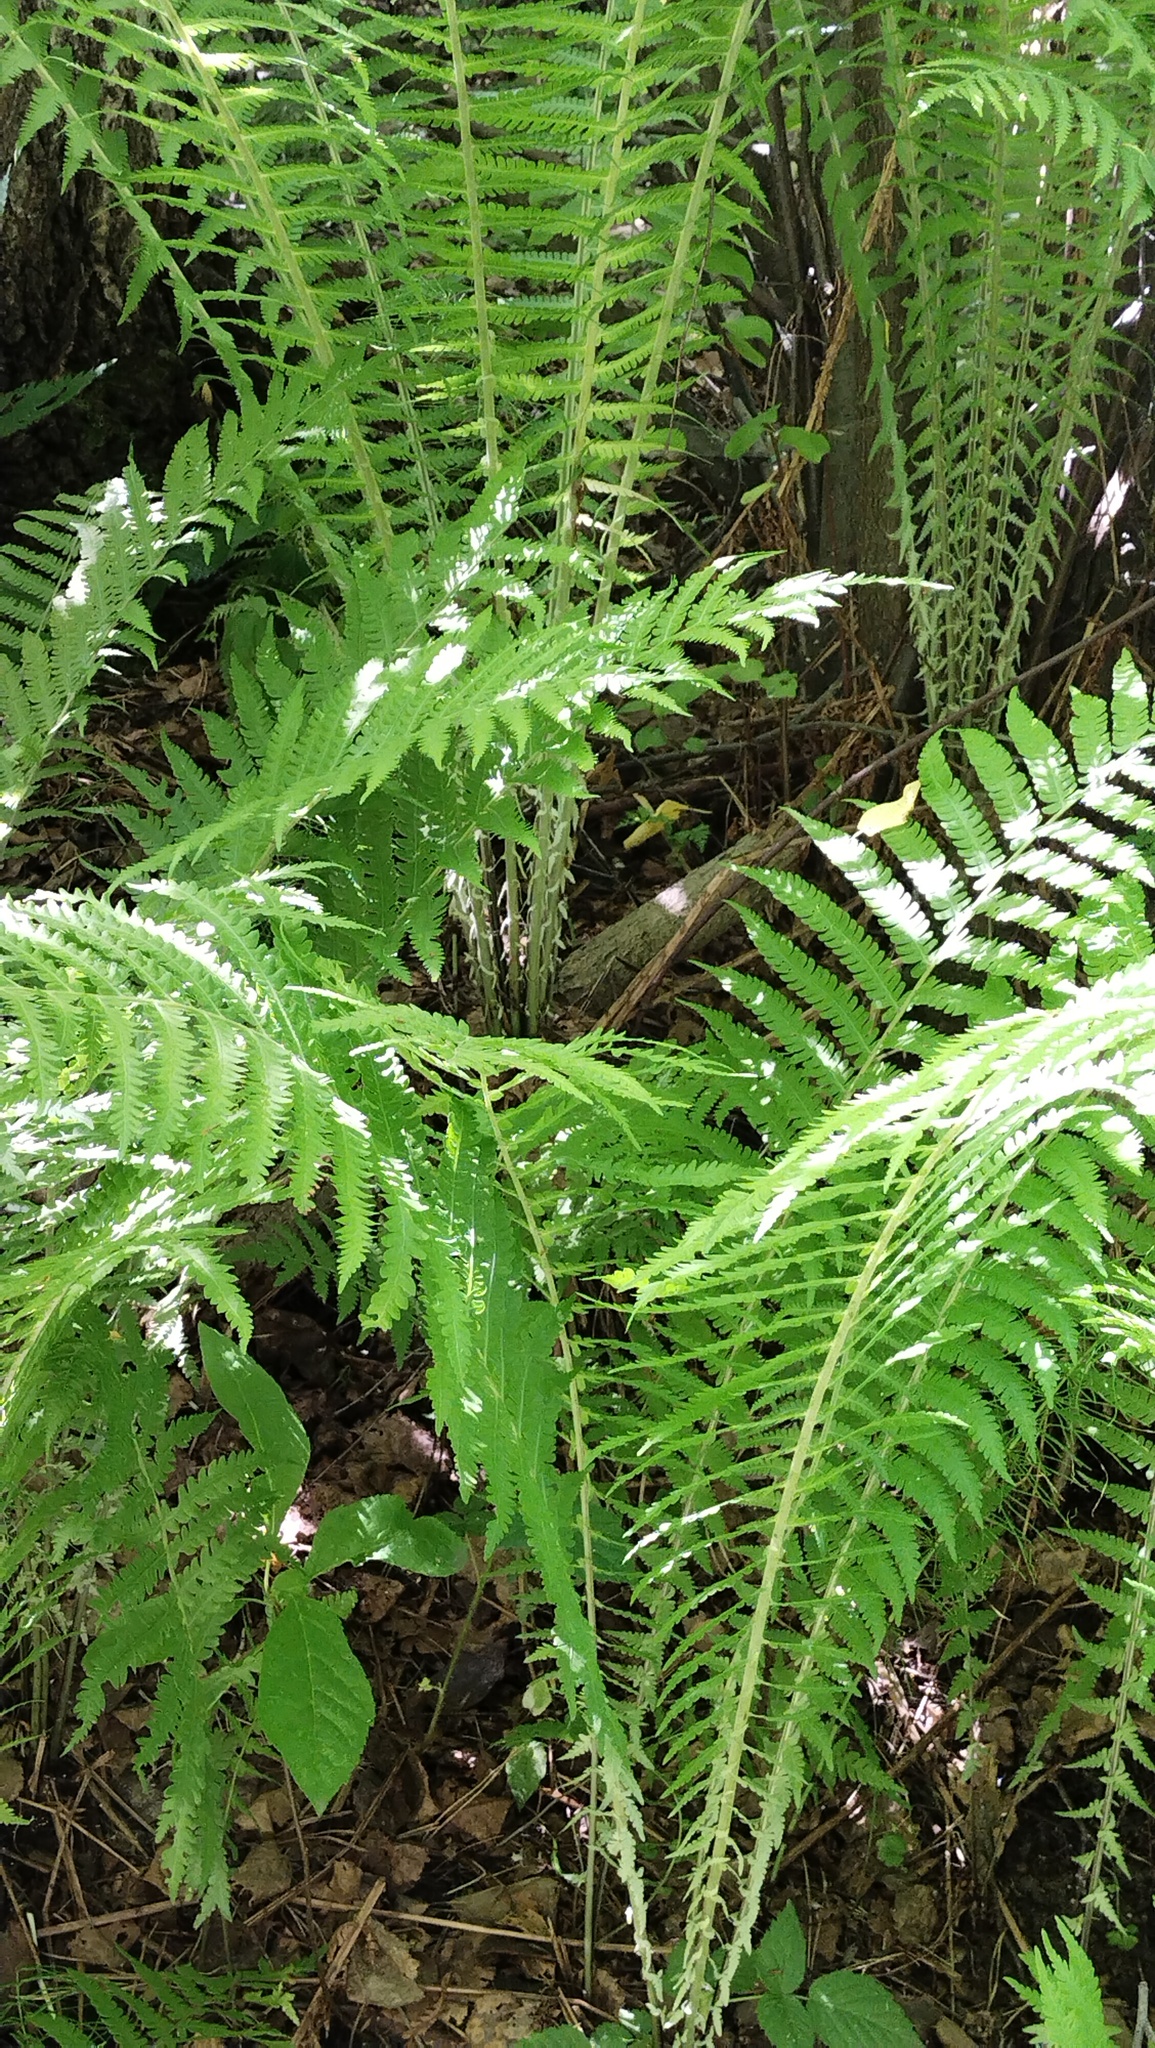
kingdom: Plantae
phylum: Tracheophyta
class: Polypodiopsida
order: Polypodiales
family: Onocleaceae
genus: Matteuccia
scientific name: Matteuccia struthiopteris
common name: Ostrich fern
